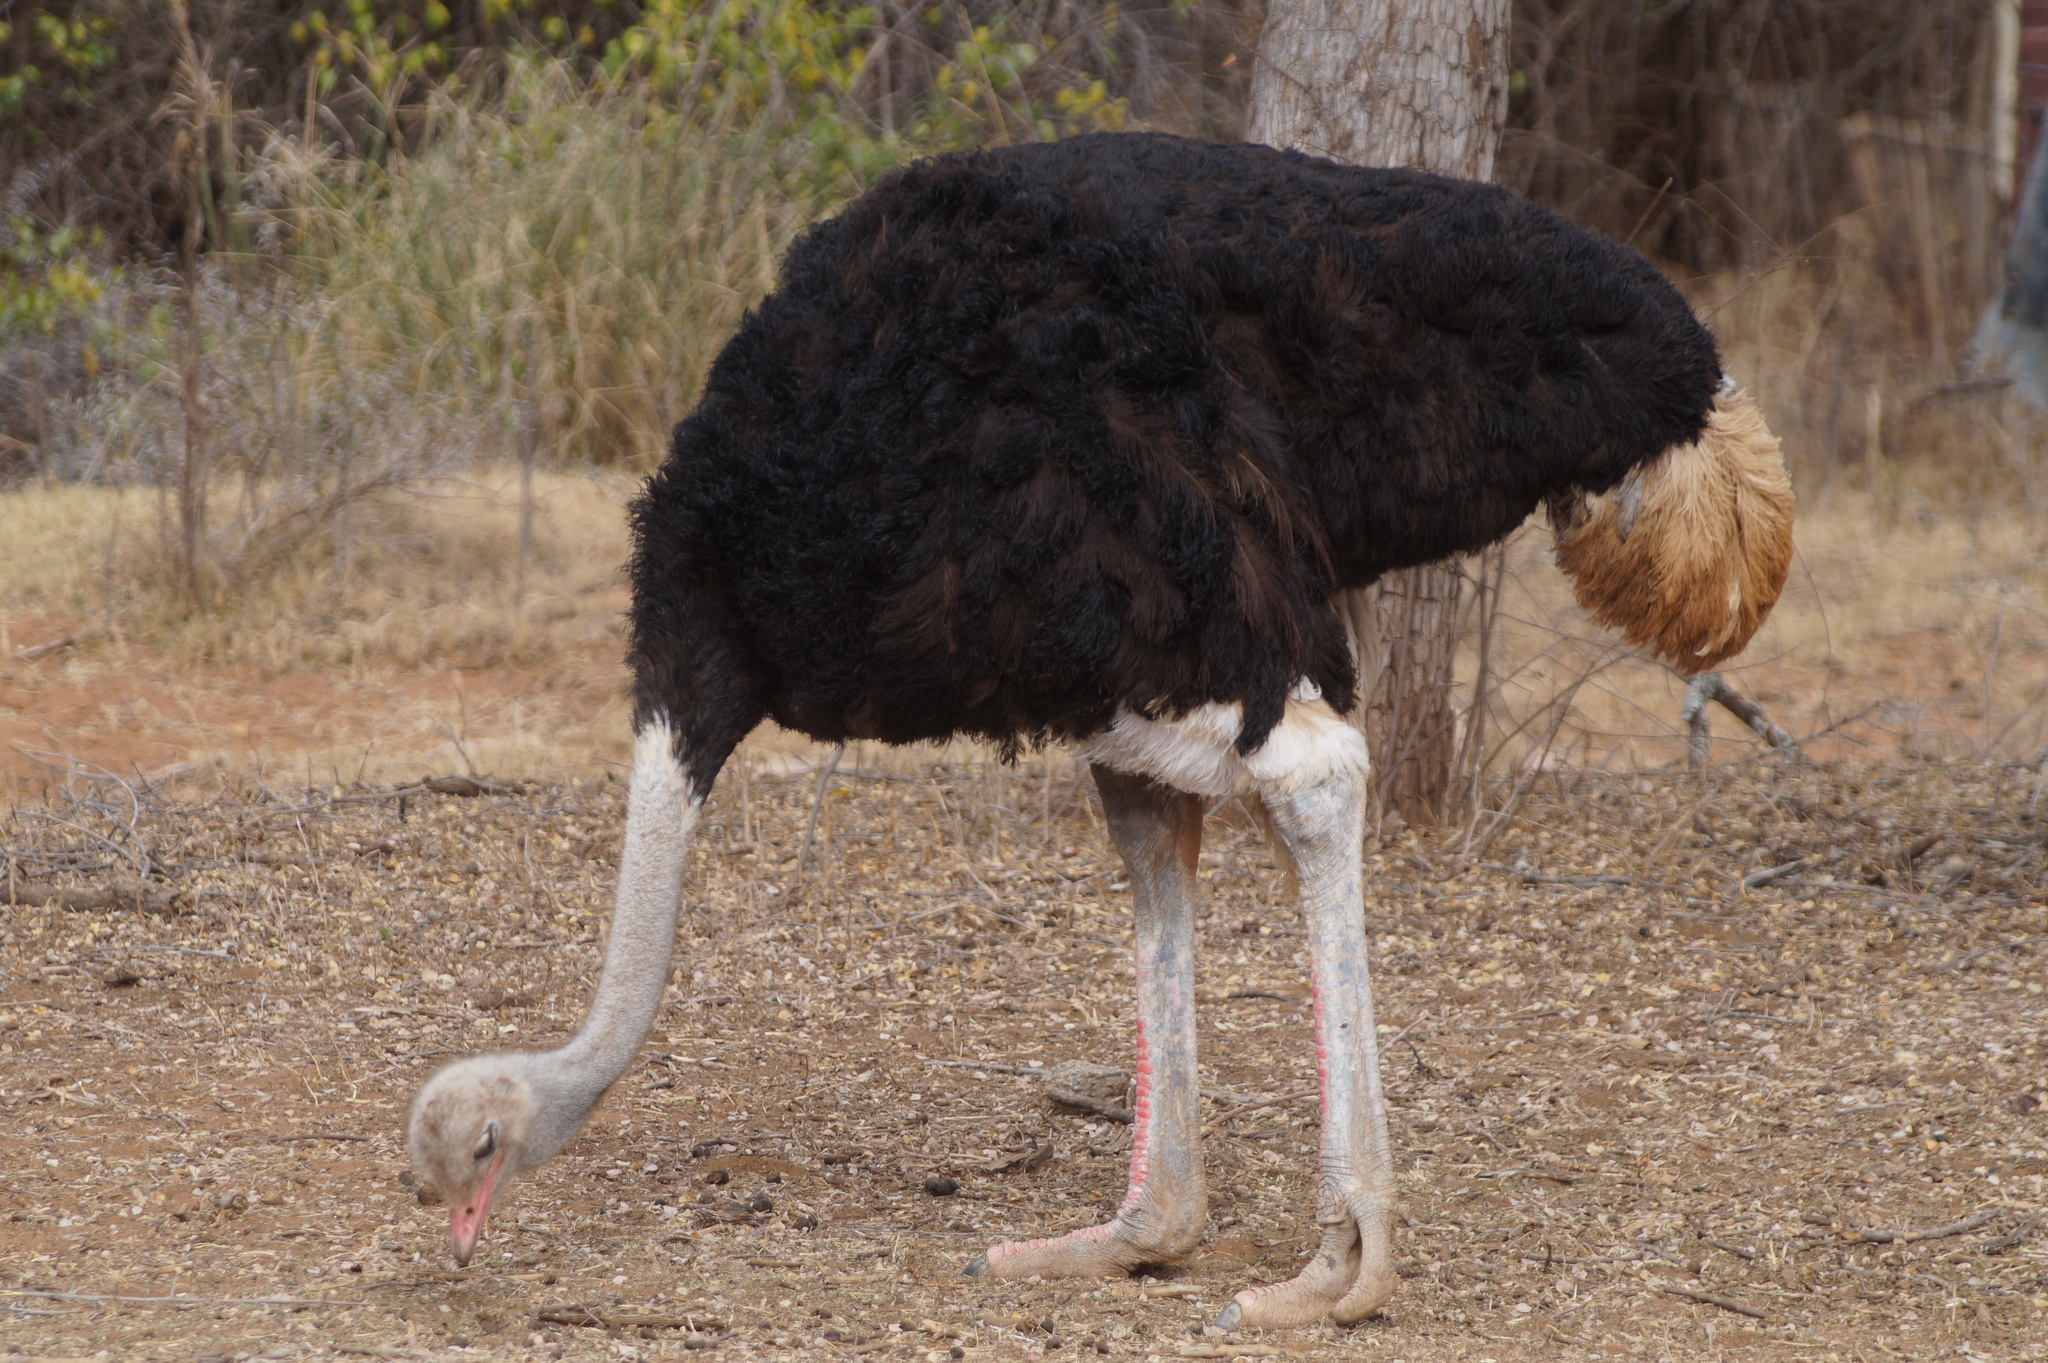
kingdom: Animalia
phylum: Chordata
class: Aves
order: Struthioniformes
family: Struthionidae
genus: Struthio
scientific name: Struthio camelus
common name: Common ostrich
